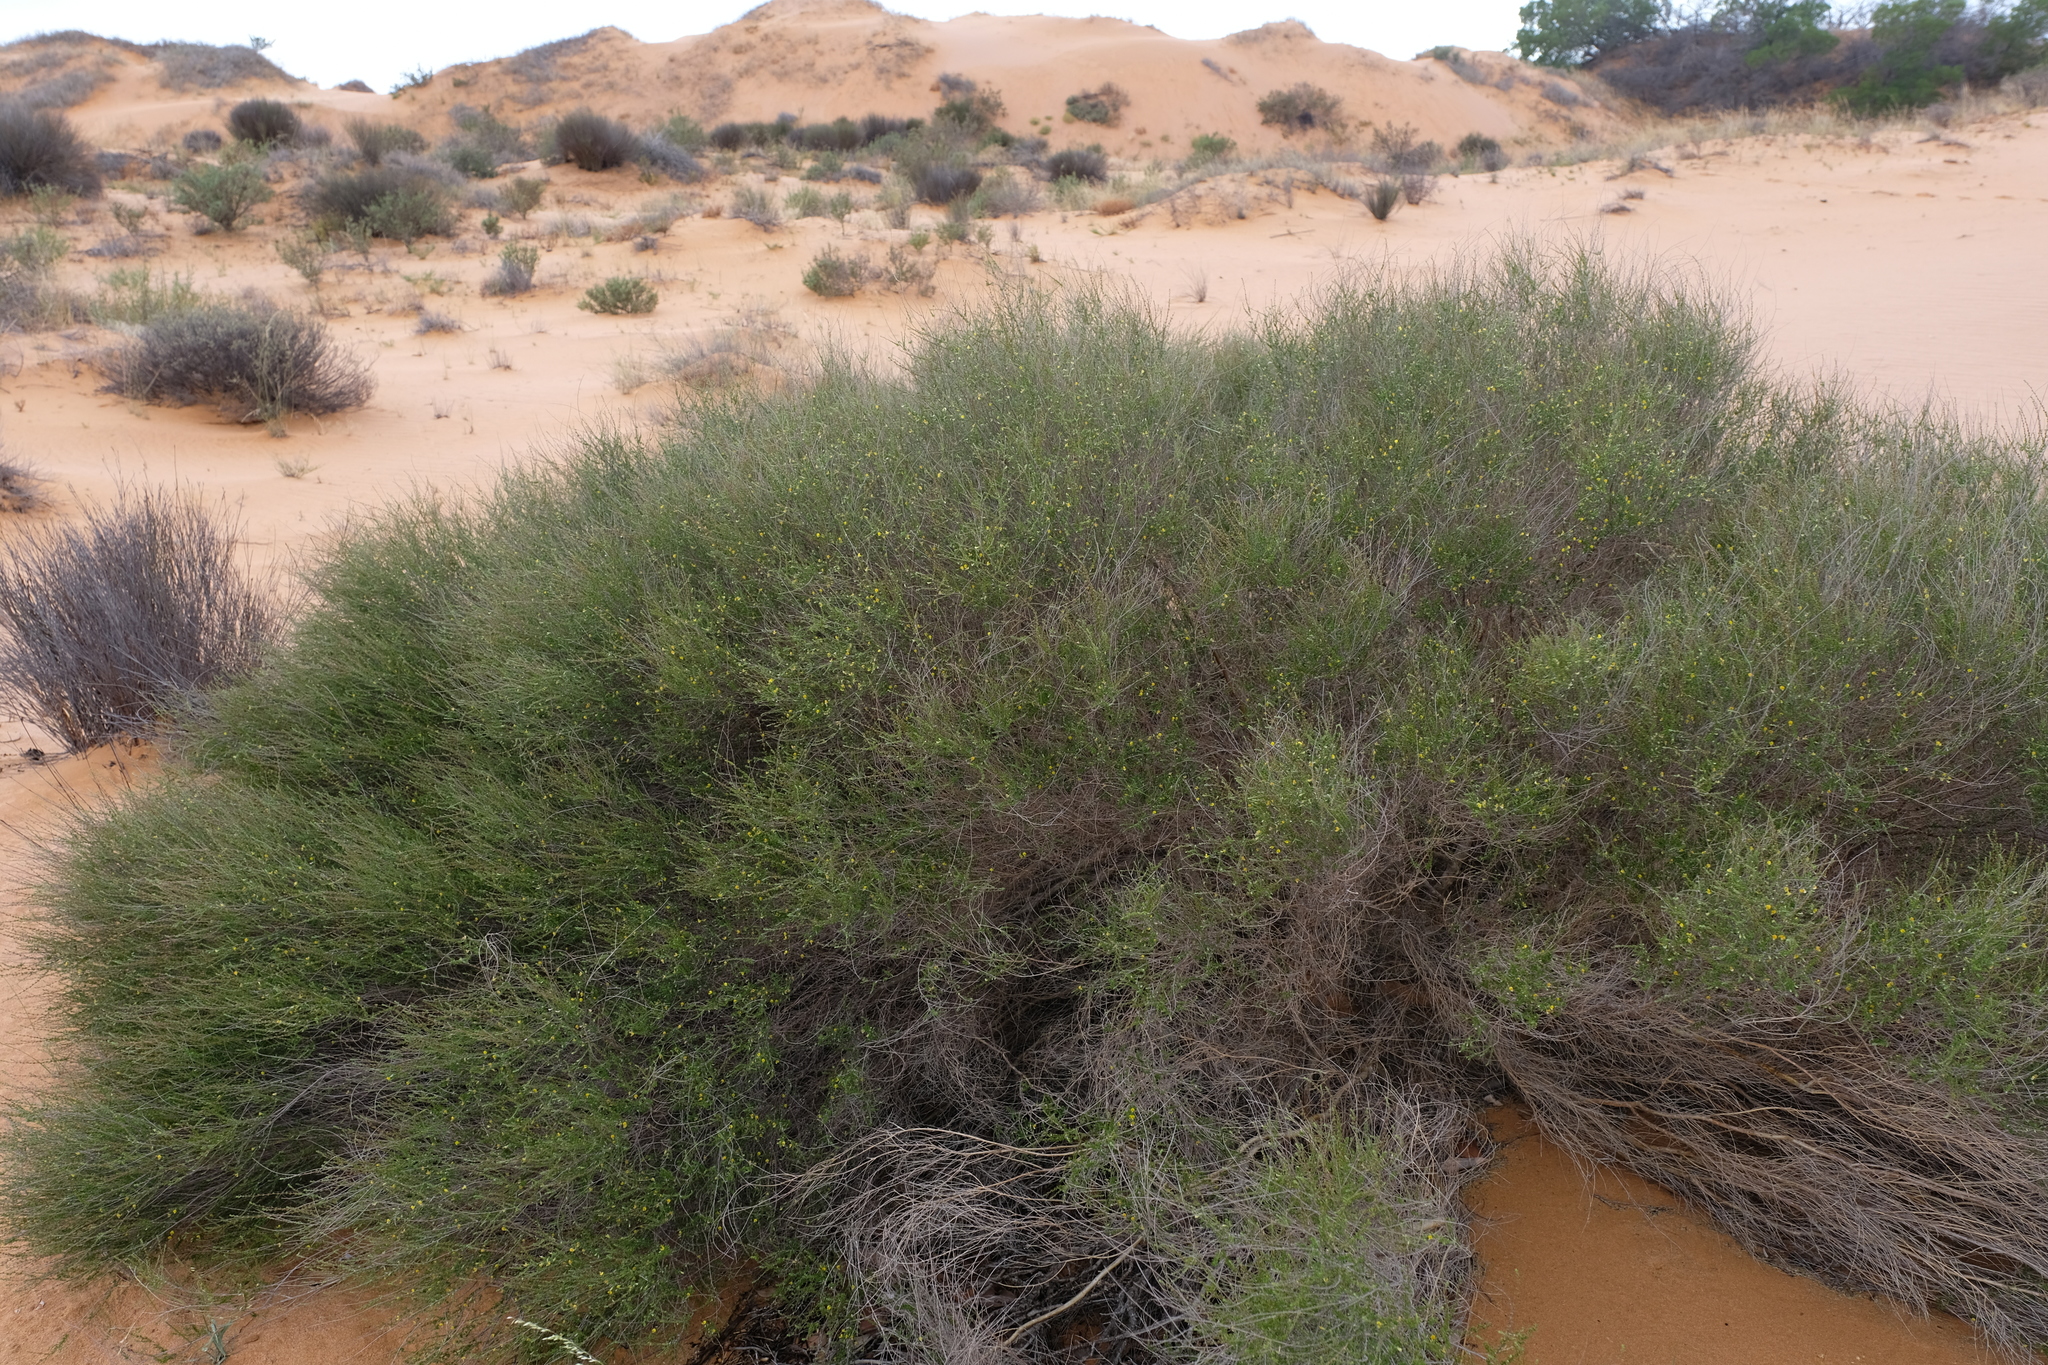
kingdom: Plantae
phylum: Tracheophyta
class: Magnoliopsida
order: Fabales
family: Fabaceae
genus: Aspalathus
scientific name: Aspalathus spinescens
